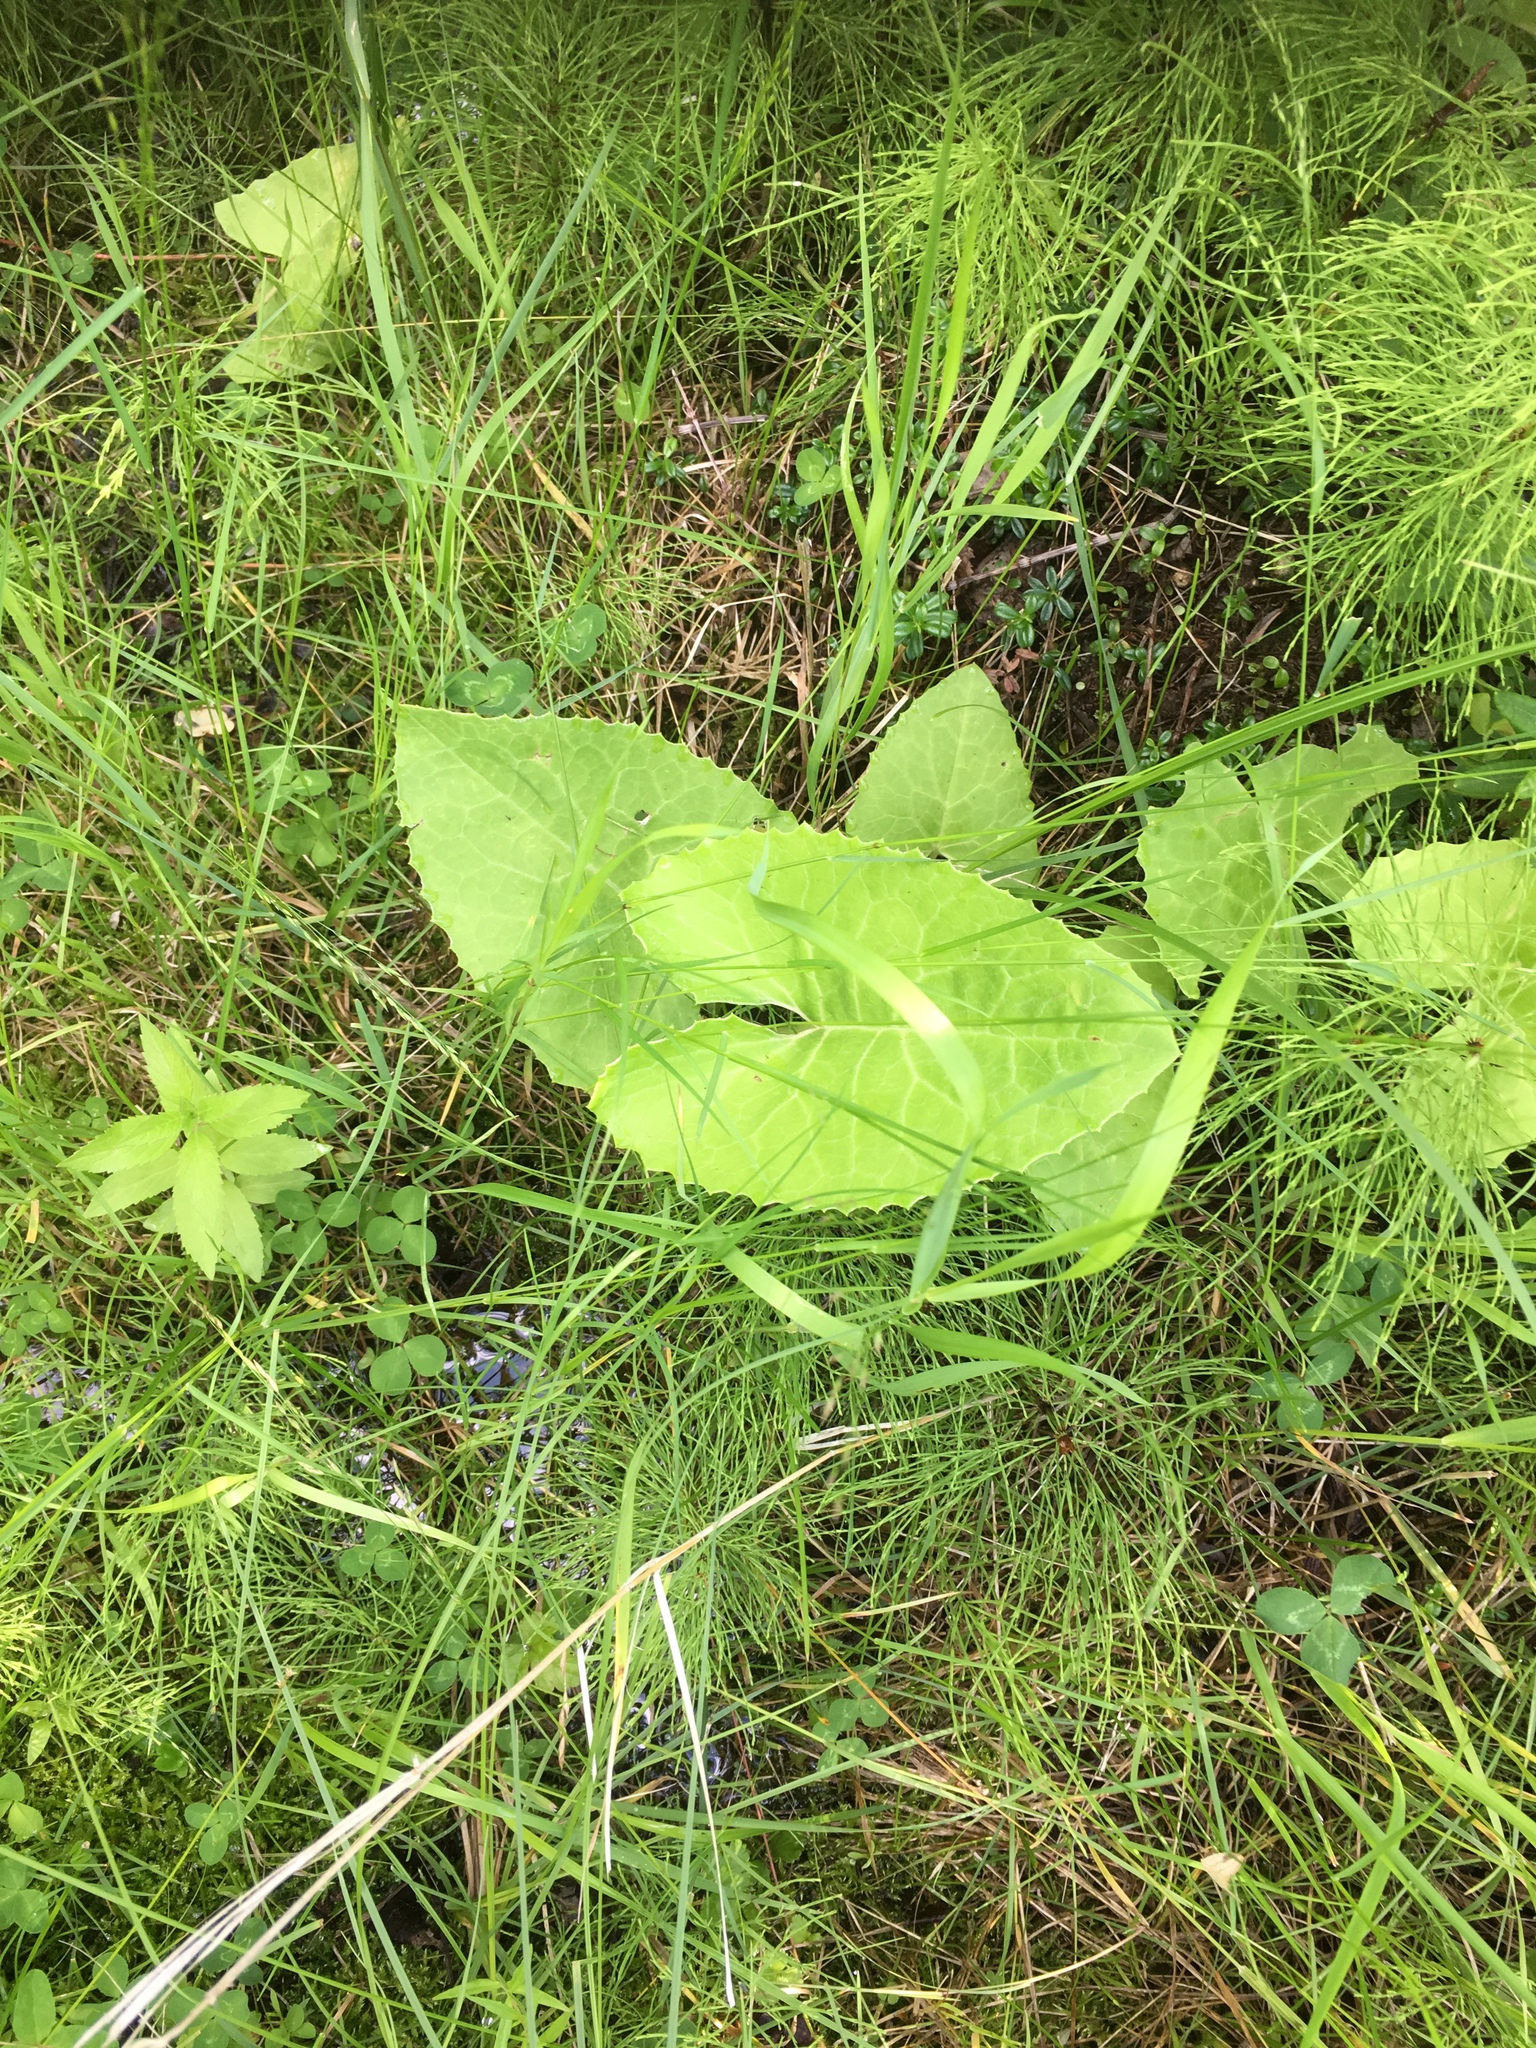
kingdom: Plantae
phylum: Tracheophyta
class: Magnoliopsida
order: Asterales
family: Asteraceae
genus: Petasites
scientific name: Petasites frigidus
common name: Arctic butterbur
